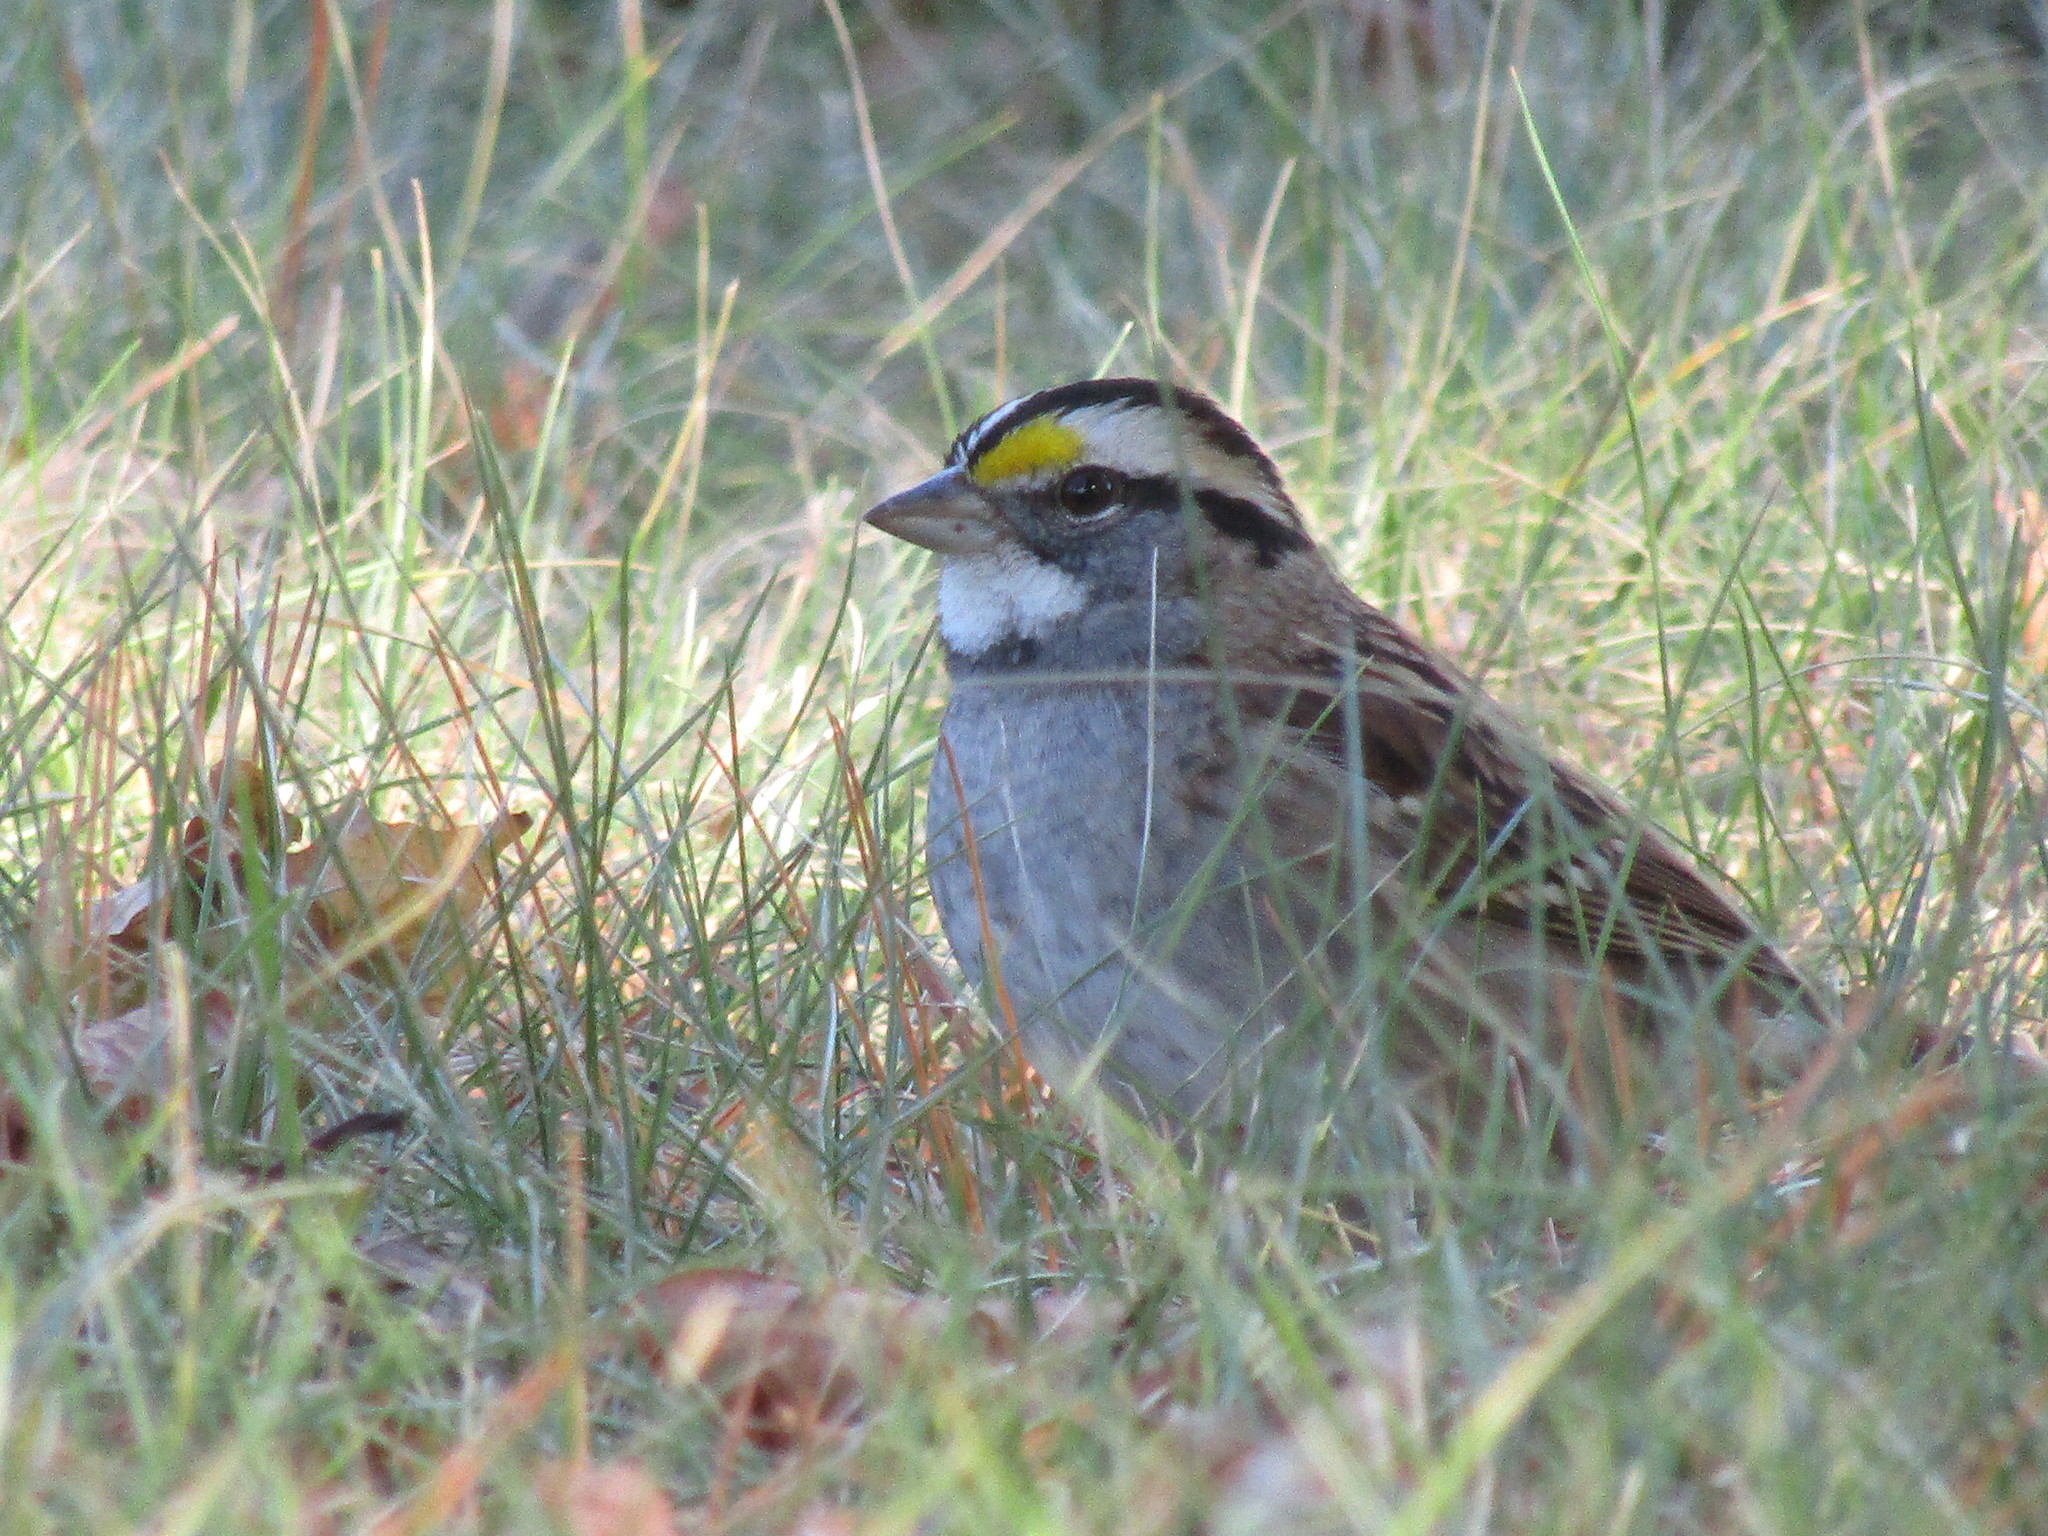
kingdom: Animalia
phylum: Chordata
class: Aves
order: Passeriformes
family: Passerellidae
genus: Zonotrichia
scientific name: Zonotrichia albicollis
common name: White-throated sparrow
